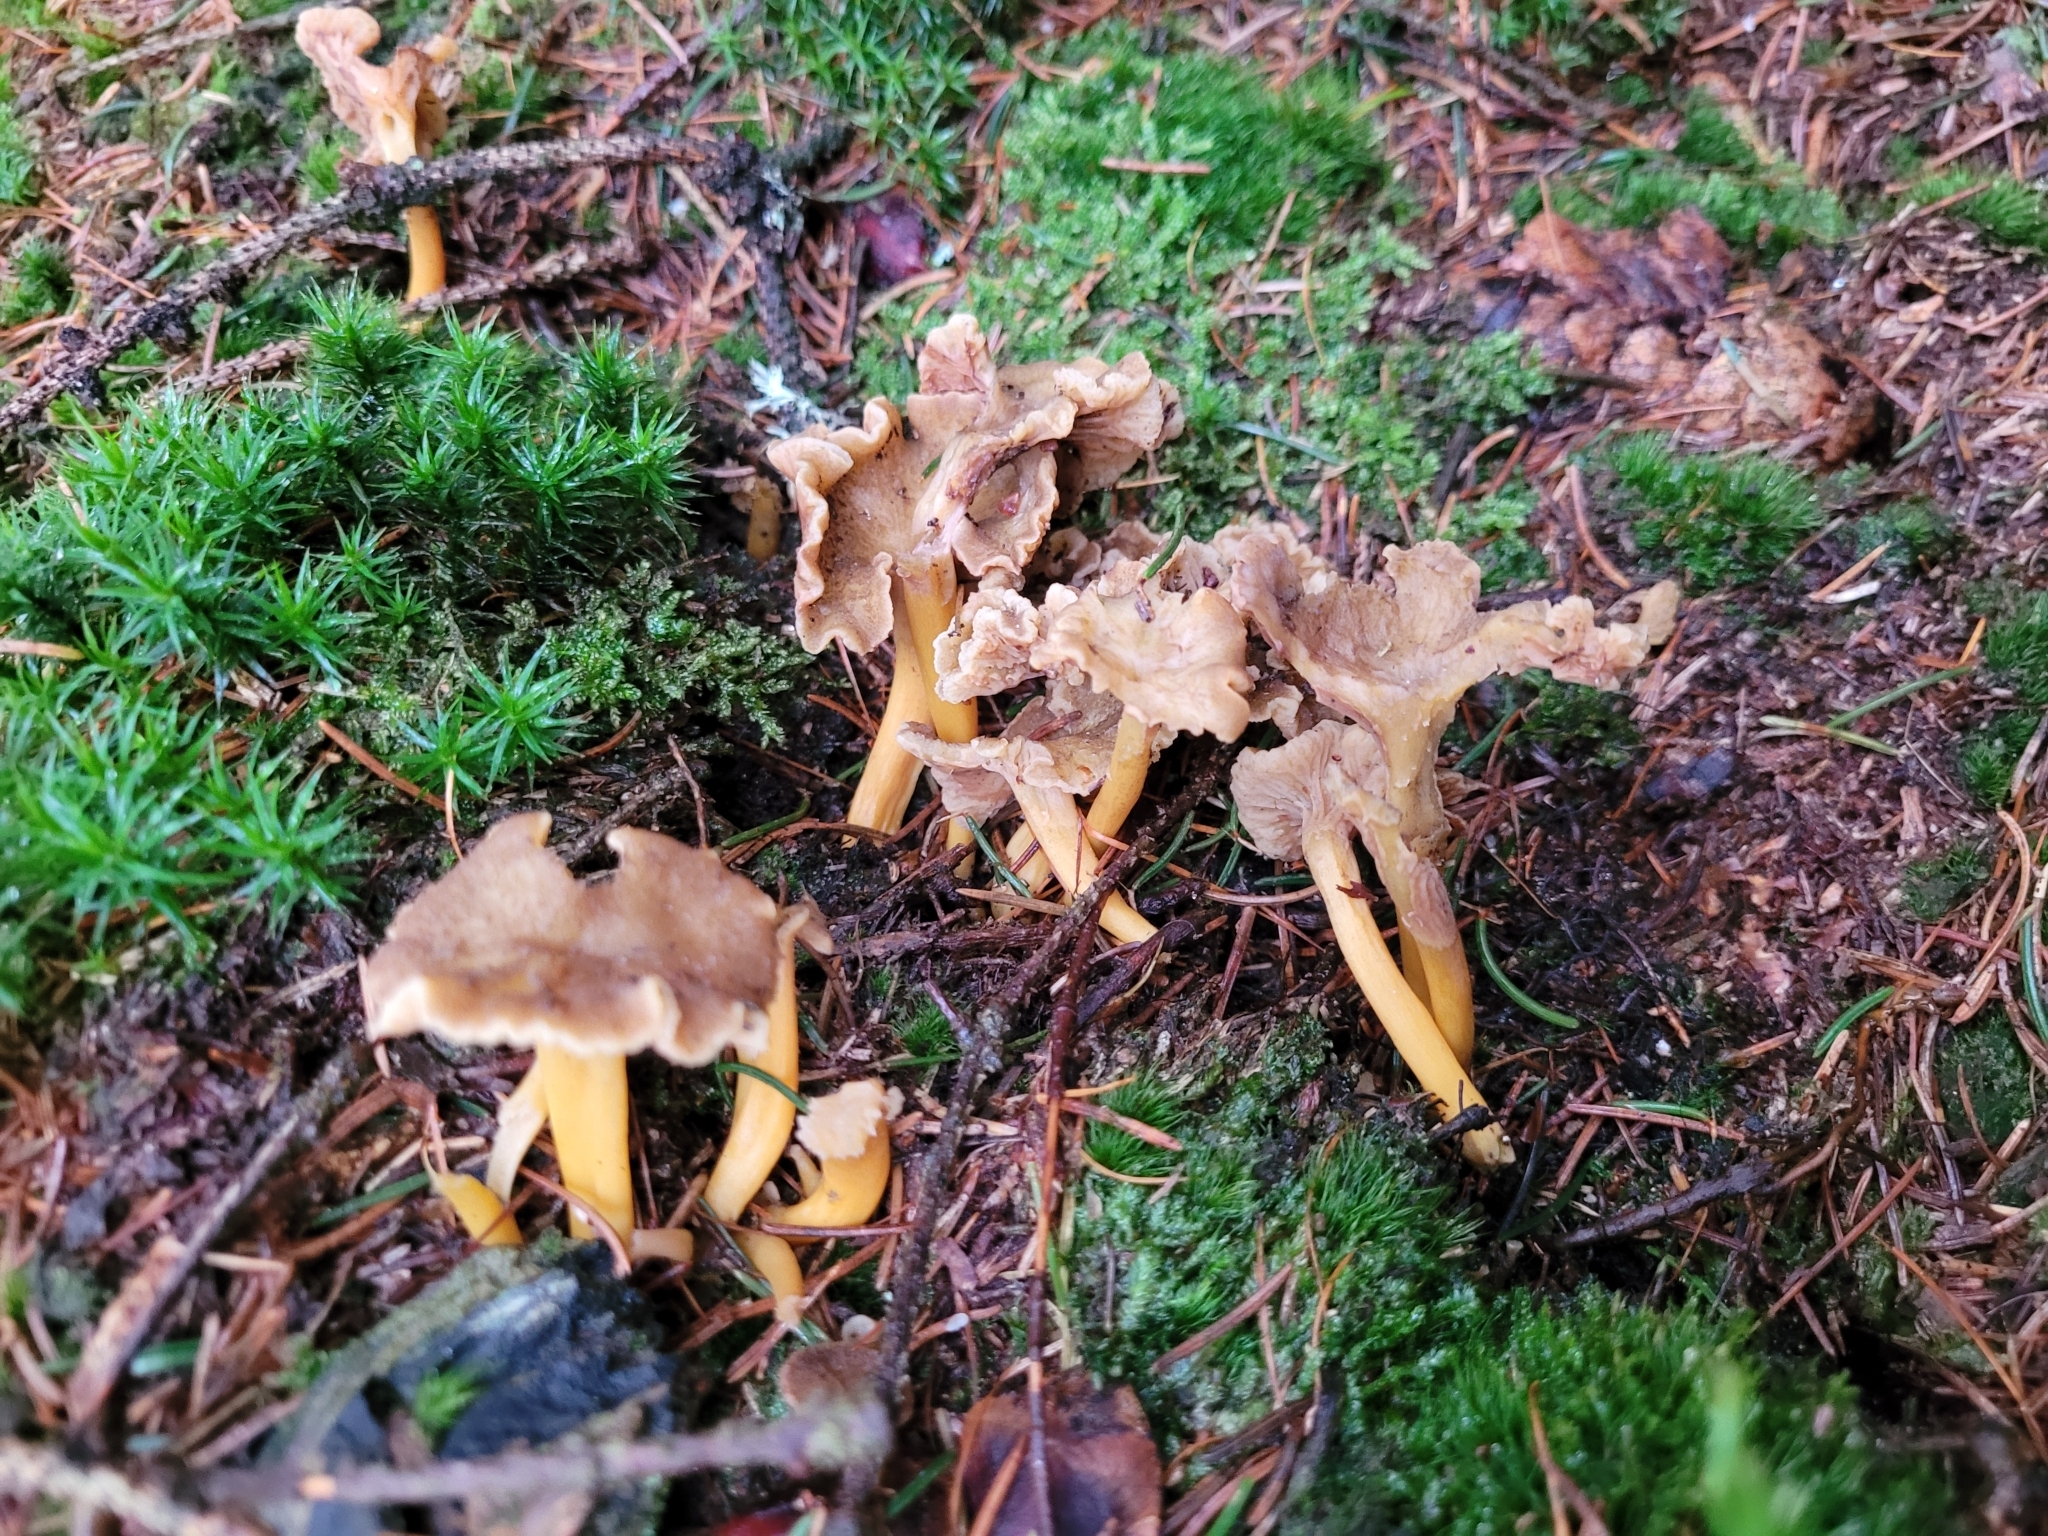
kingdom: Fungi
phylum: Basidiomycota
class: Agaricomycetes
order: Cantharellales
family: Hydnaceae
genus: Craterellus
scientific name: Craterellus tubaeformis
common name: Yellowfoot
